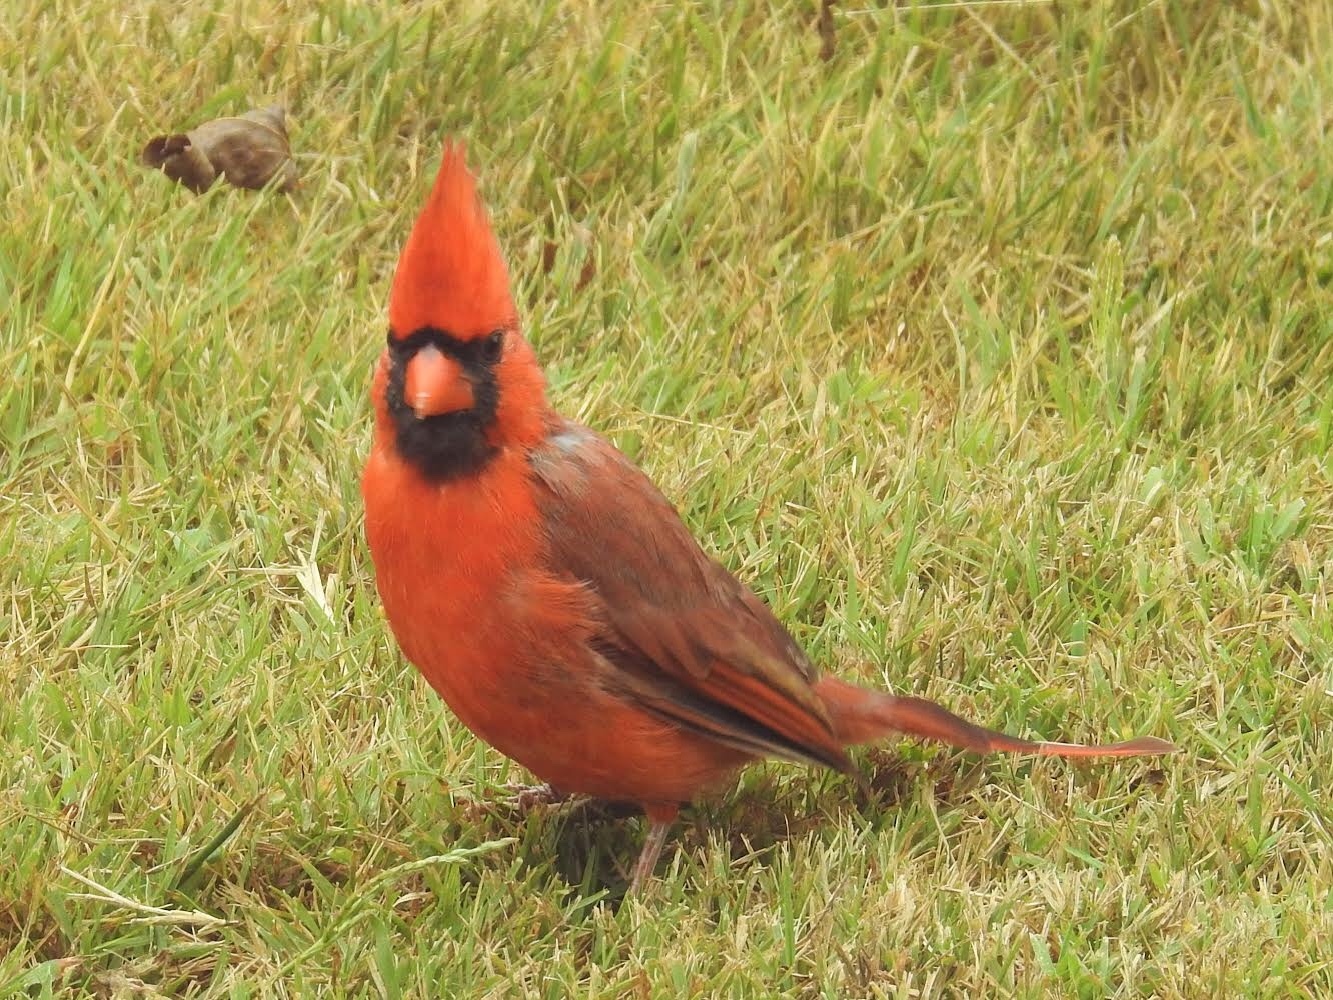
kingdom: Animalia
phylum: Chordata
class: Aves
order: Passeriformes
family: Cardinalidae
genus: Cardinalis
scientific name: Cardinalis cardinalis
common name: Northern cardinal
